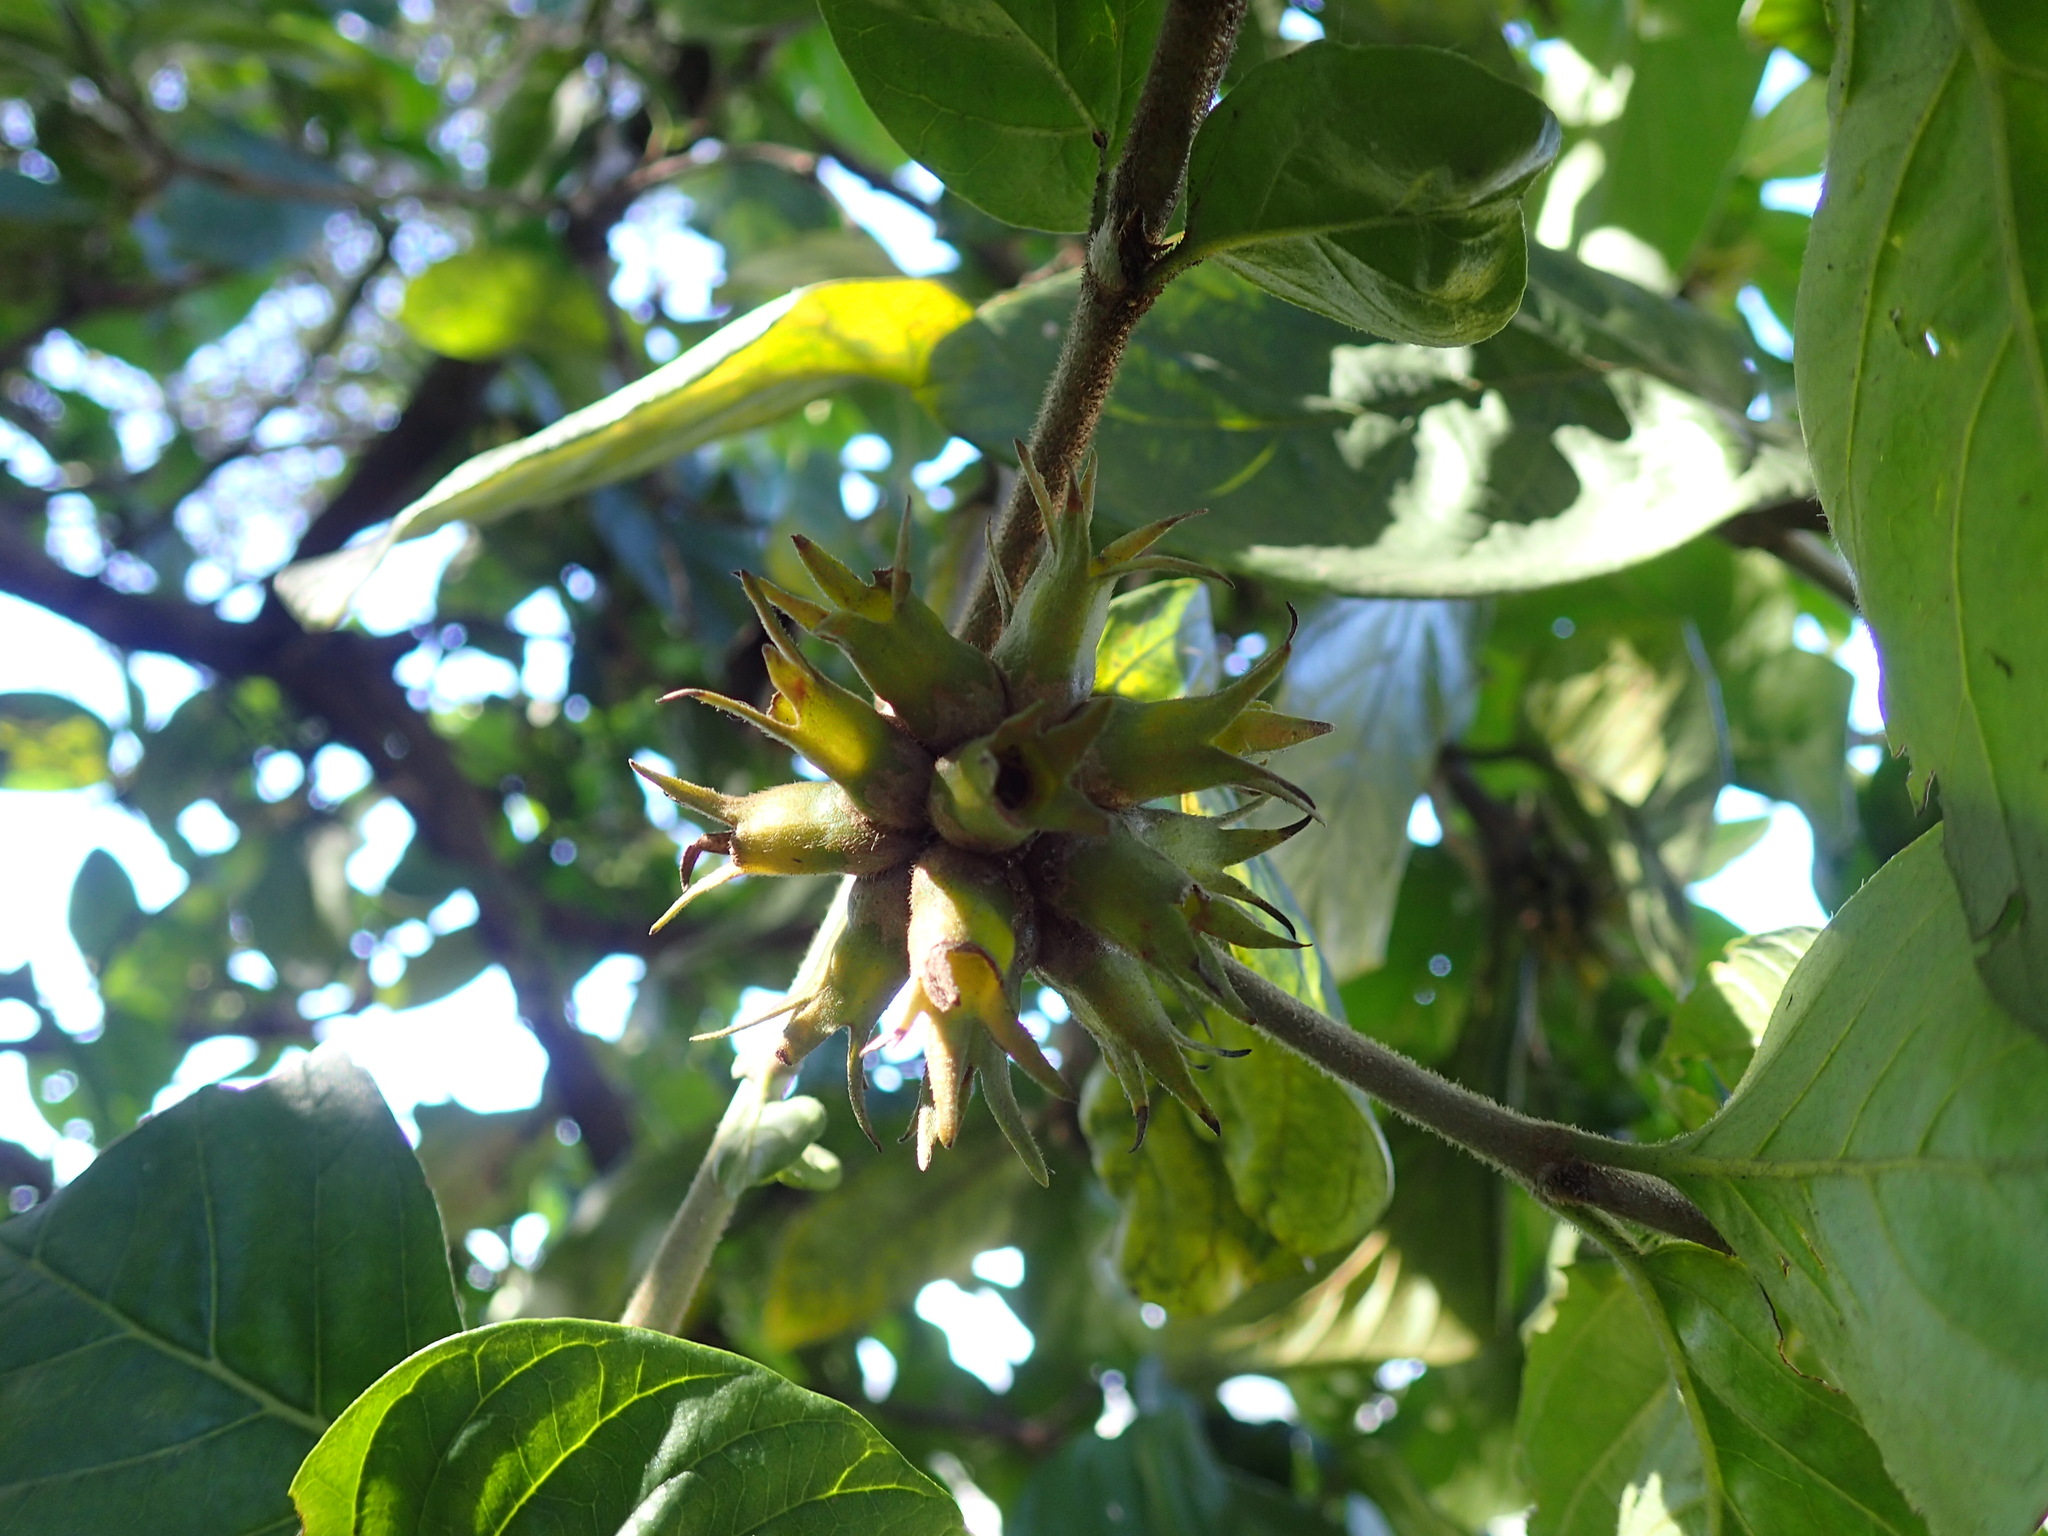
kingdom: Plantae
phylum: Tracheophyta
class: Magnoliopsida
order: Gentianales
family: Rubiaceae
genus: Burchellia
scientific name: Burchellia bubalina
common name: Wild pomegranate
